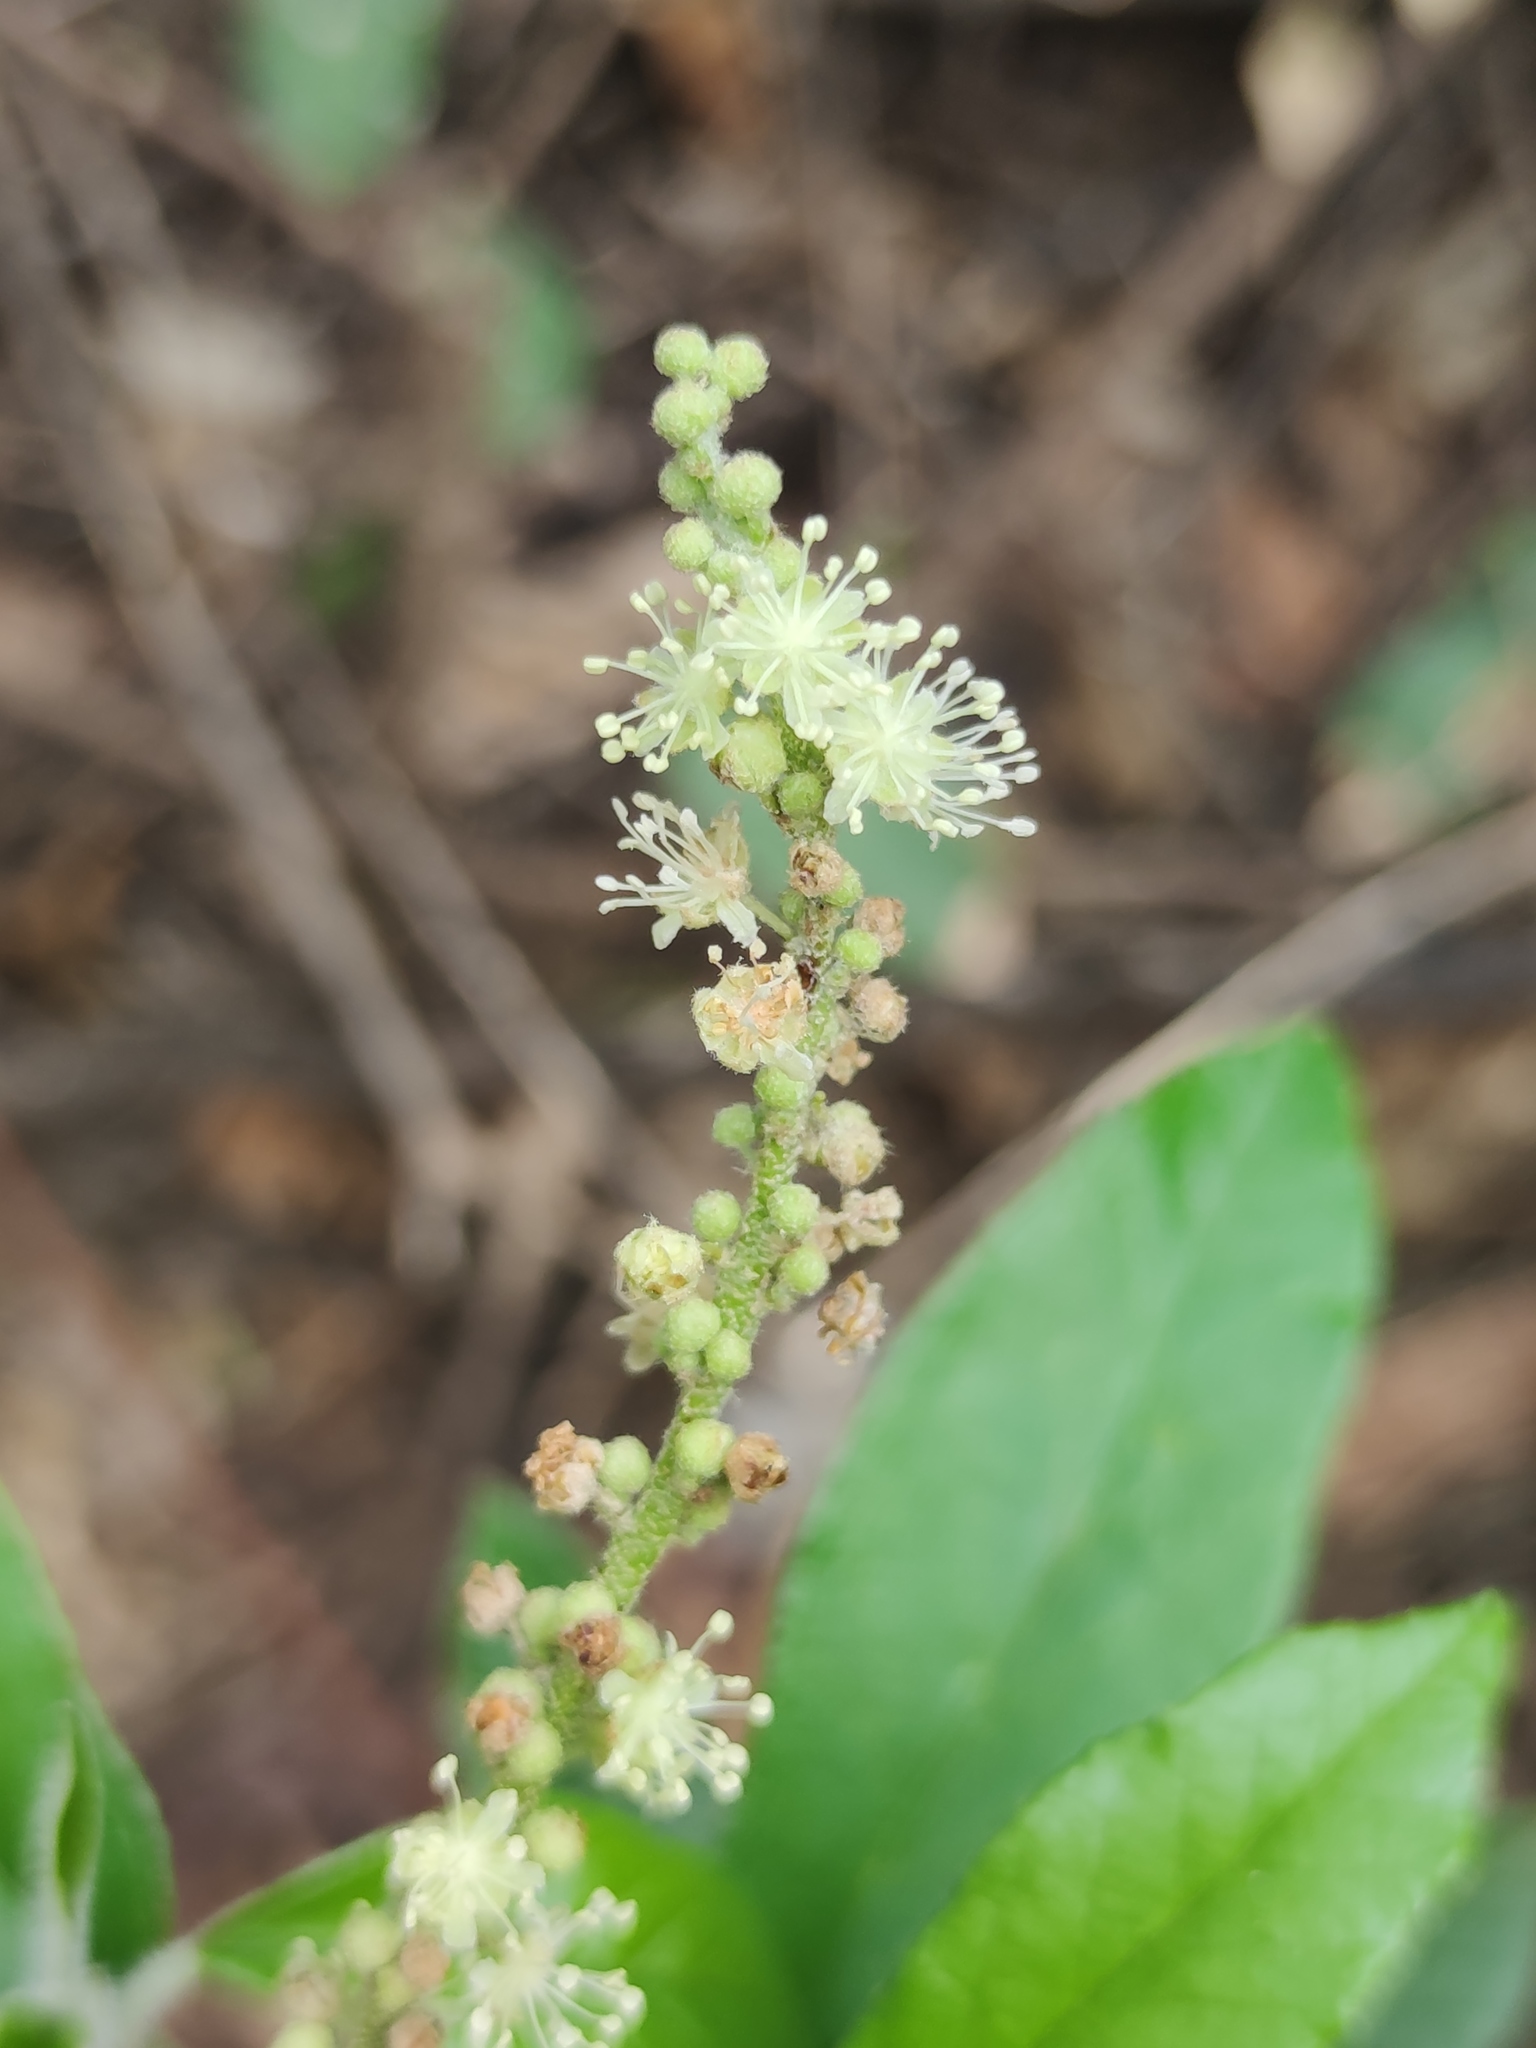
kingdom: Plantae
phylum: Tracheophyta
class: Magnoliopsida
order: Malpighiales
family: Euphorbiaceae
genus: Croton
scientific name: Croton cortesianus
